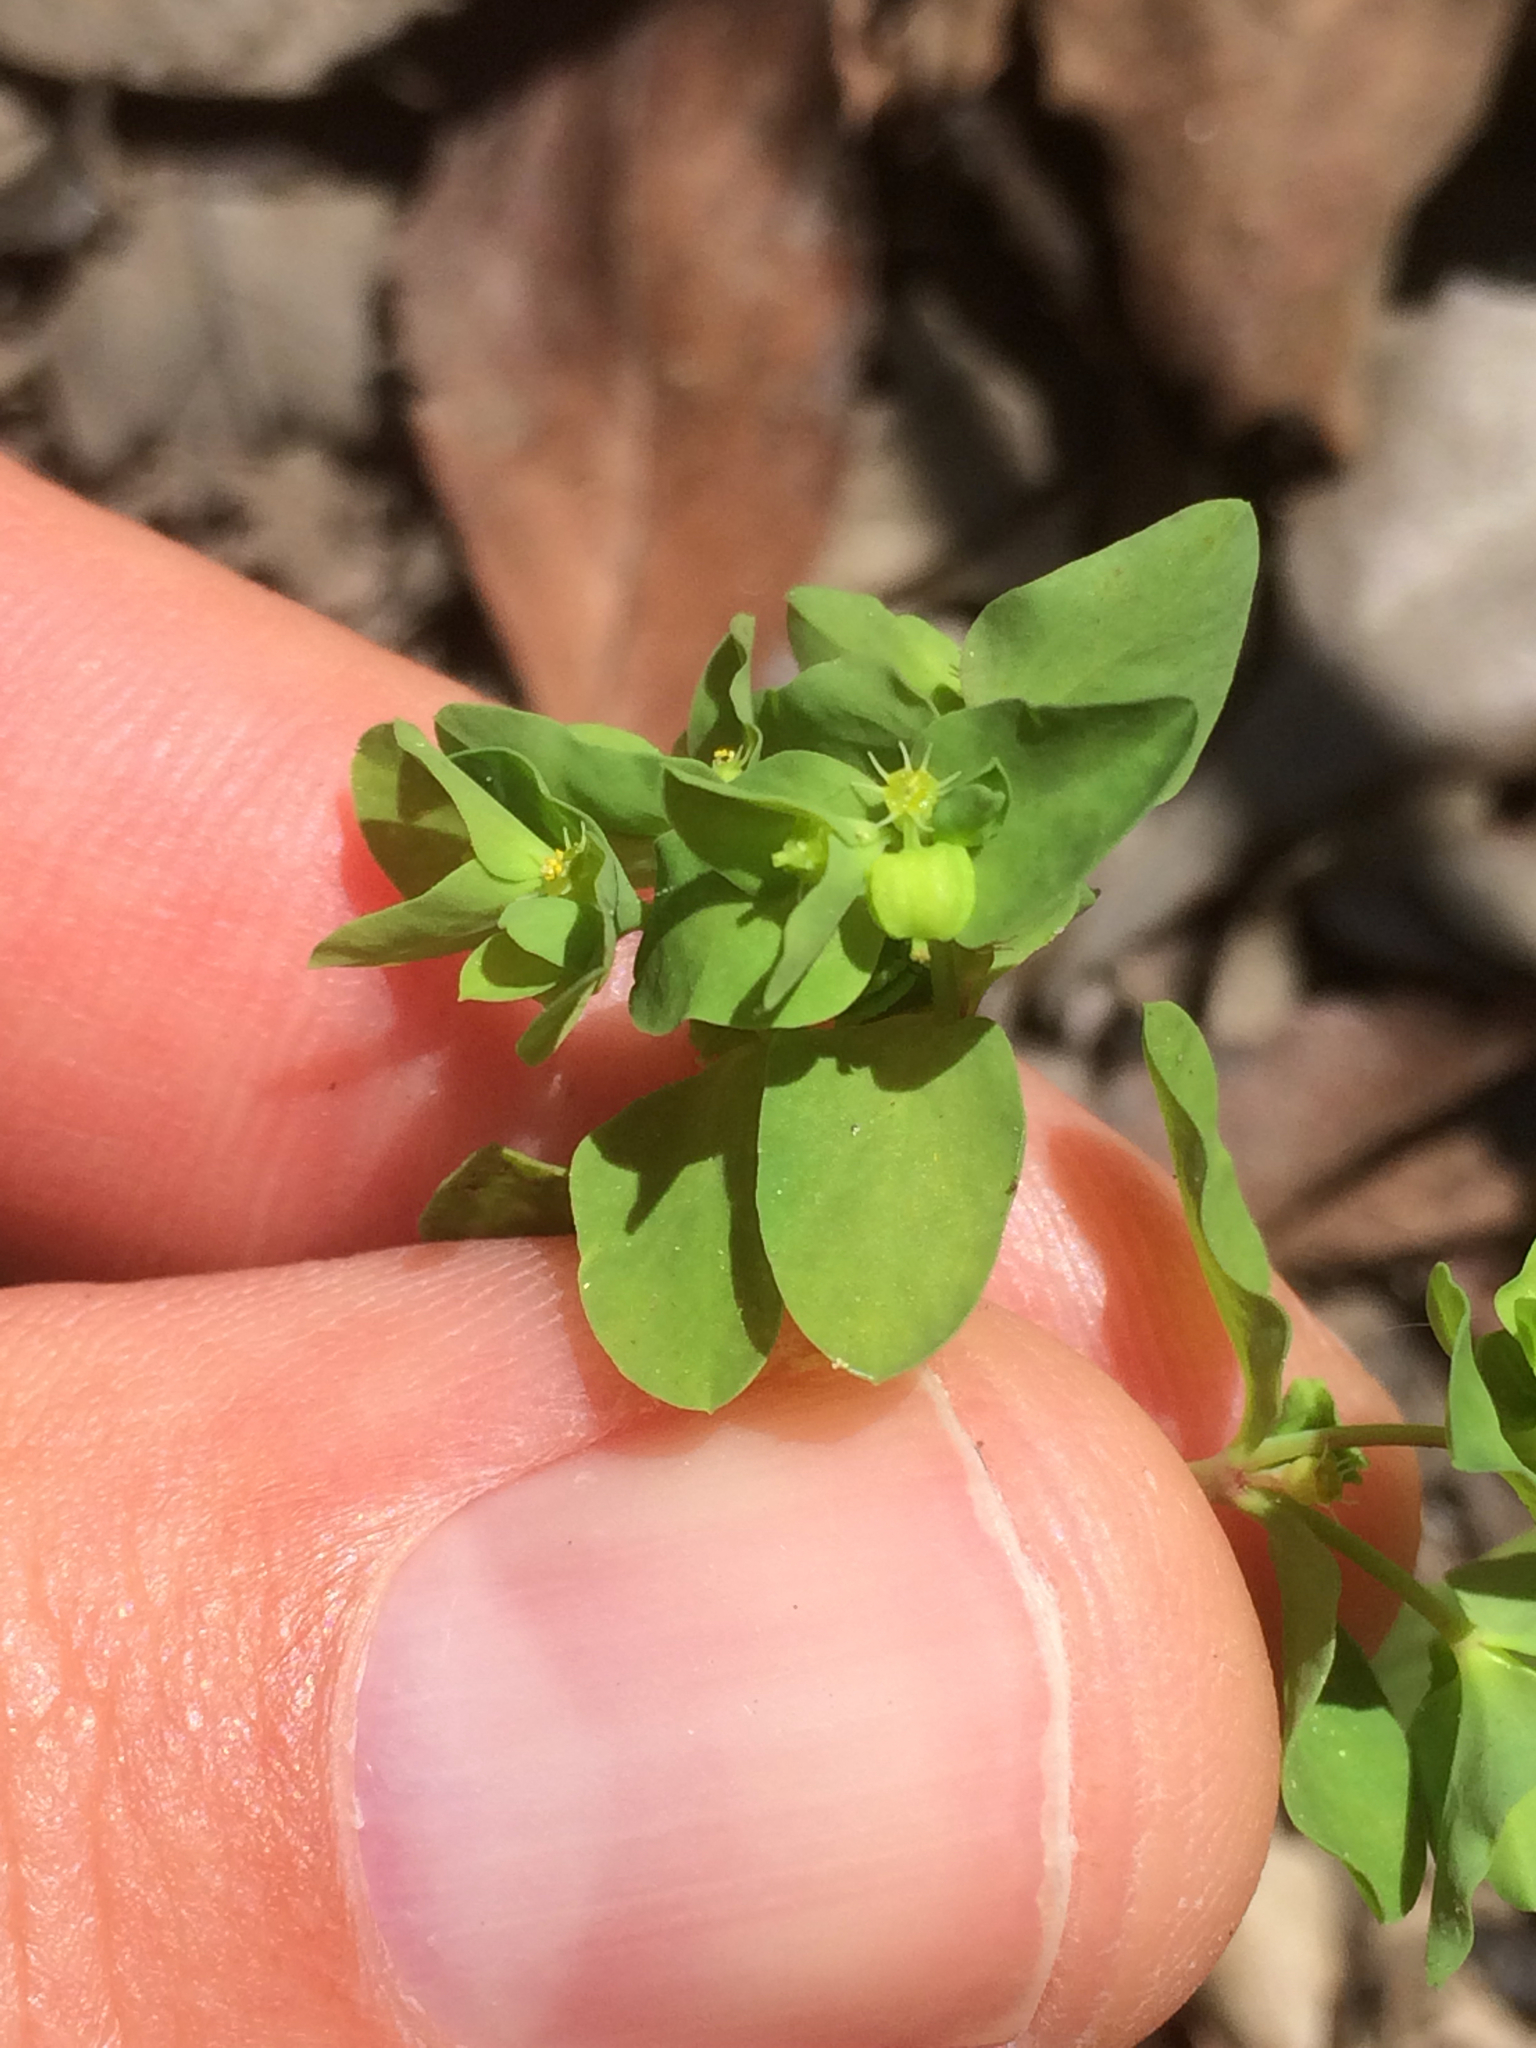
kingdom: Plantae
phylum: Tracheophyta
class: Magnoliopsida
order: Malpighiales
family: Euphorbiaceae
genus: Euphorbia
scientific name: Euphorbia peplus
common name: Petty spurge
